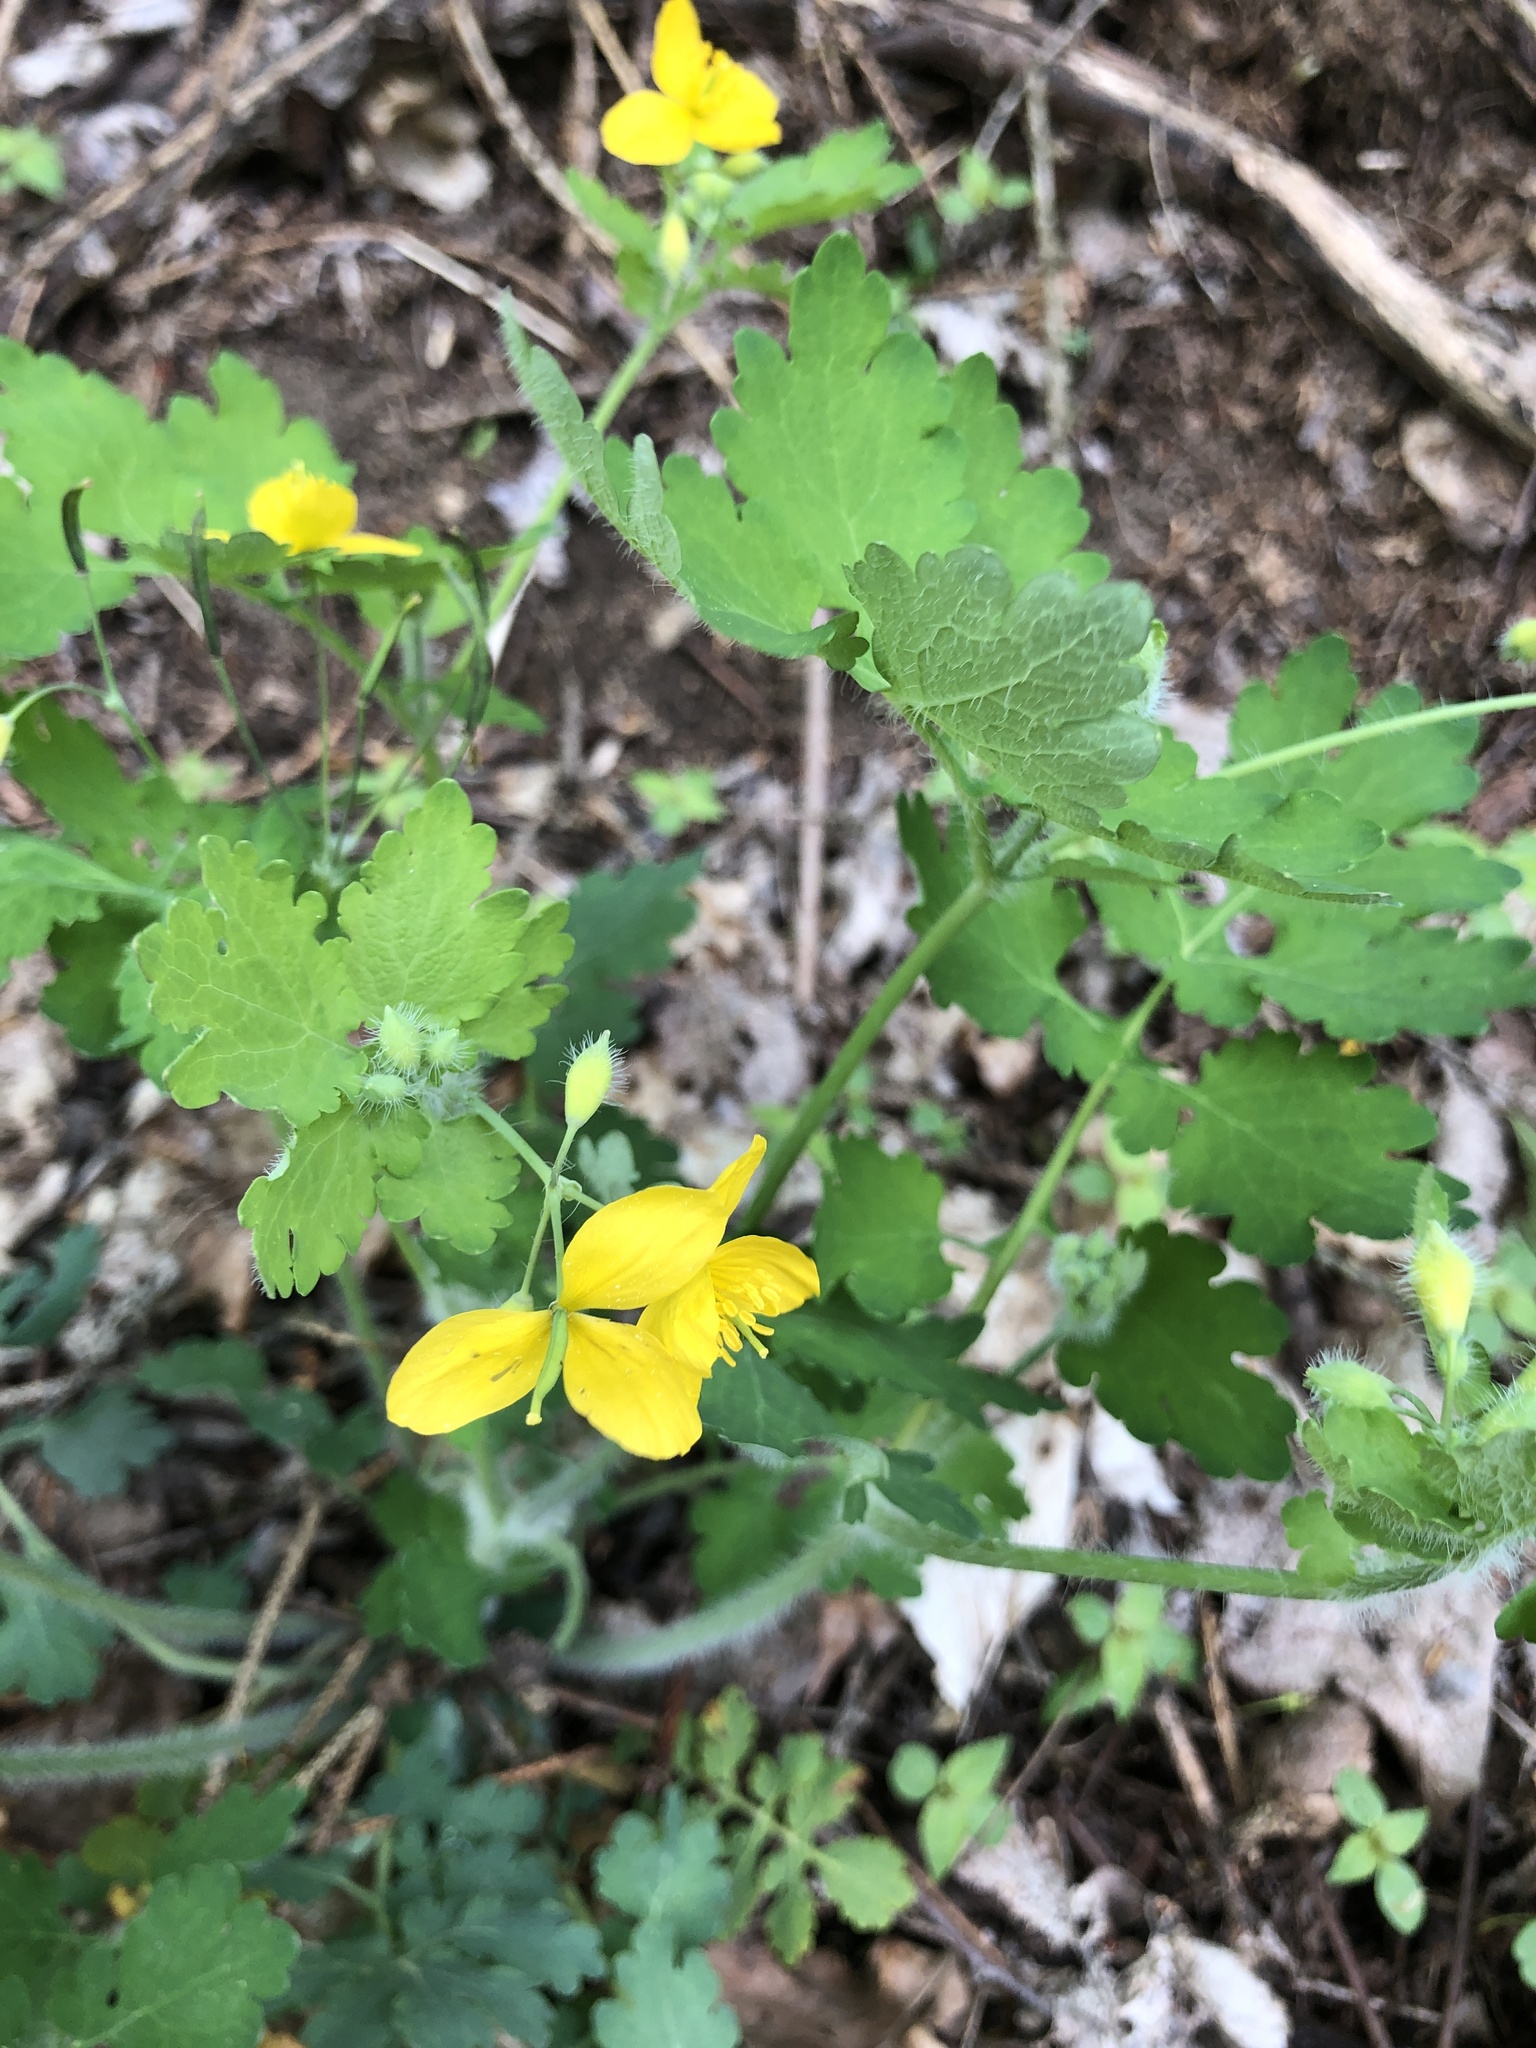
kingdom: Plantae
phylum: Tracheophyta
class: Magnoliopsida
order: Ranunculales
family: Papaveraceae
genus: Chelidonium
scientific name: Chelidonium majus
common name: Greater celandine
